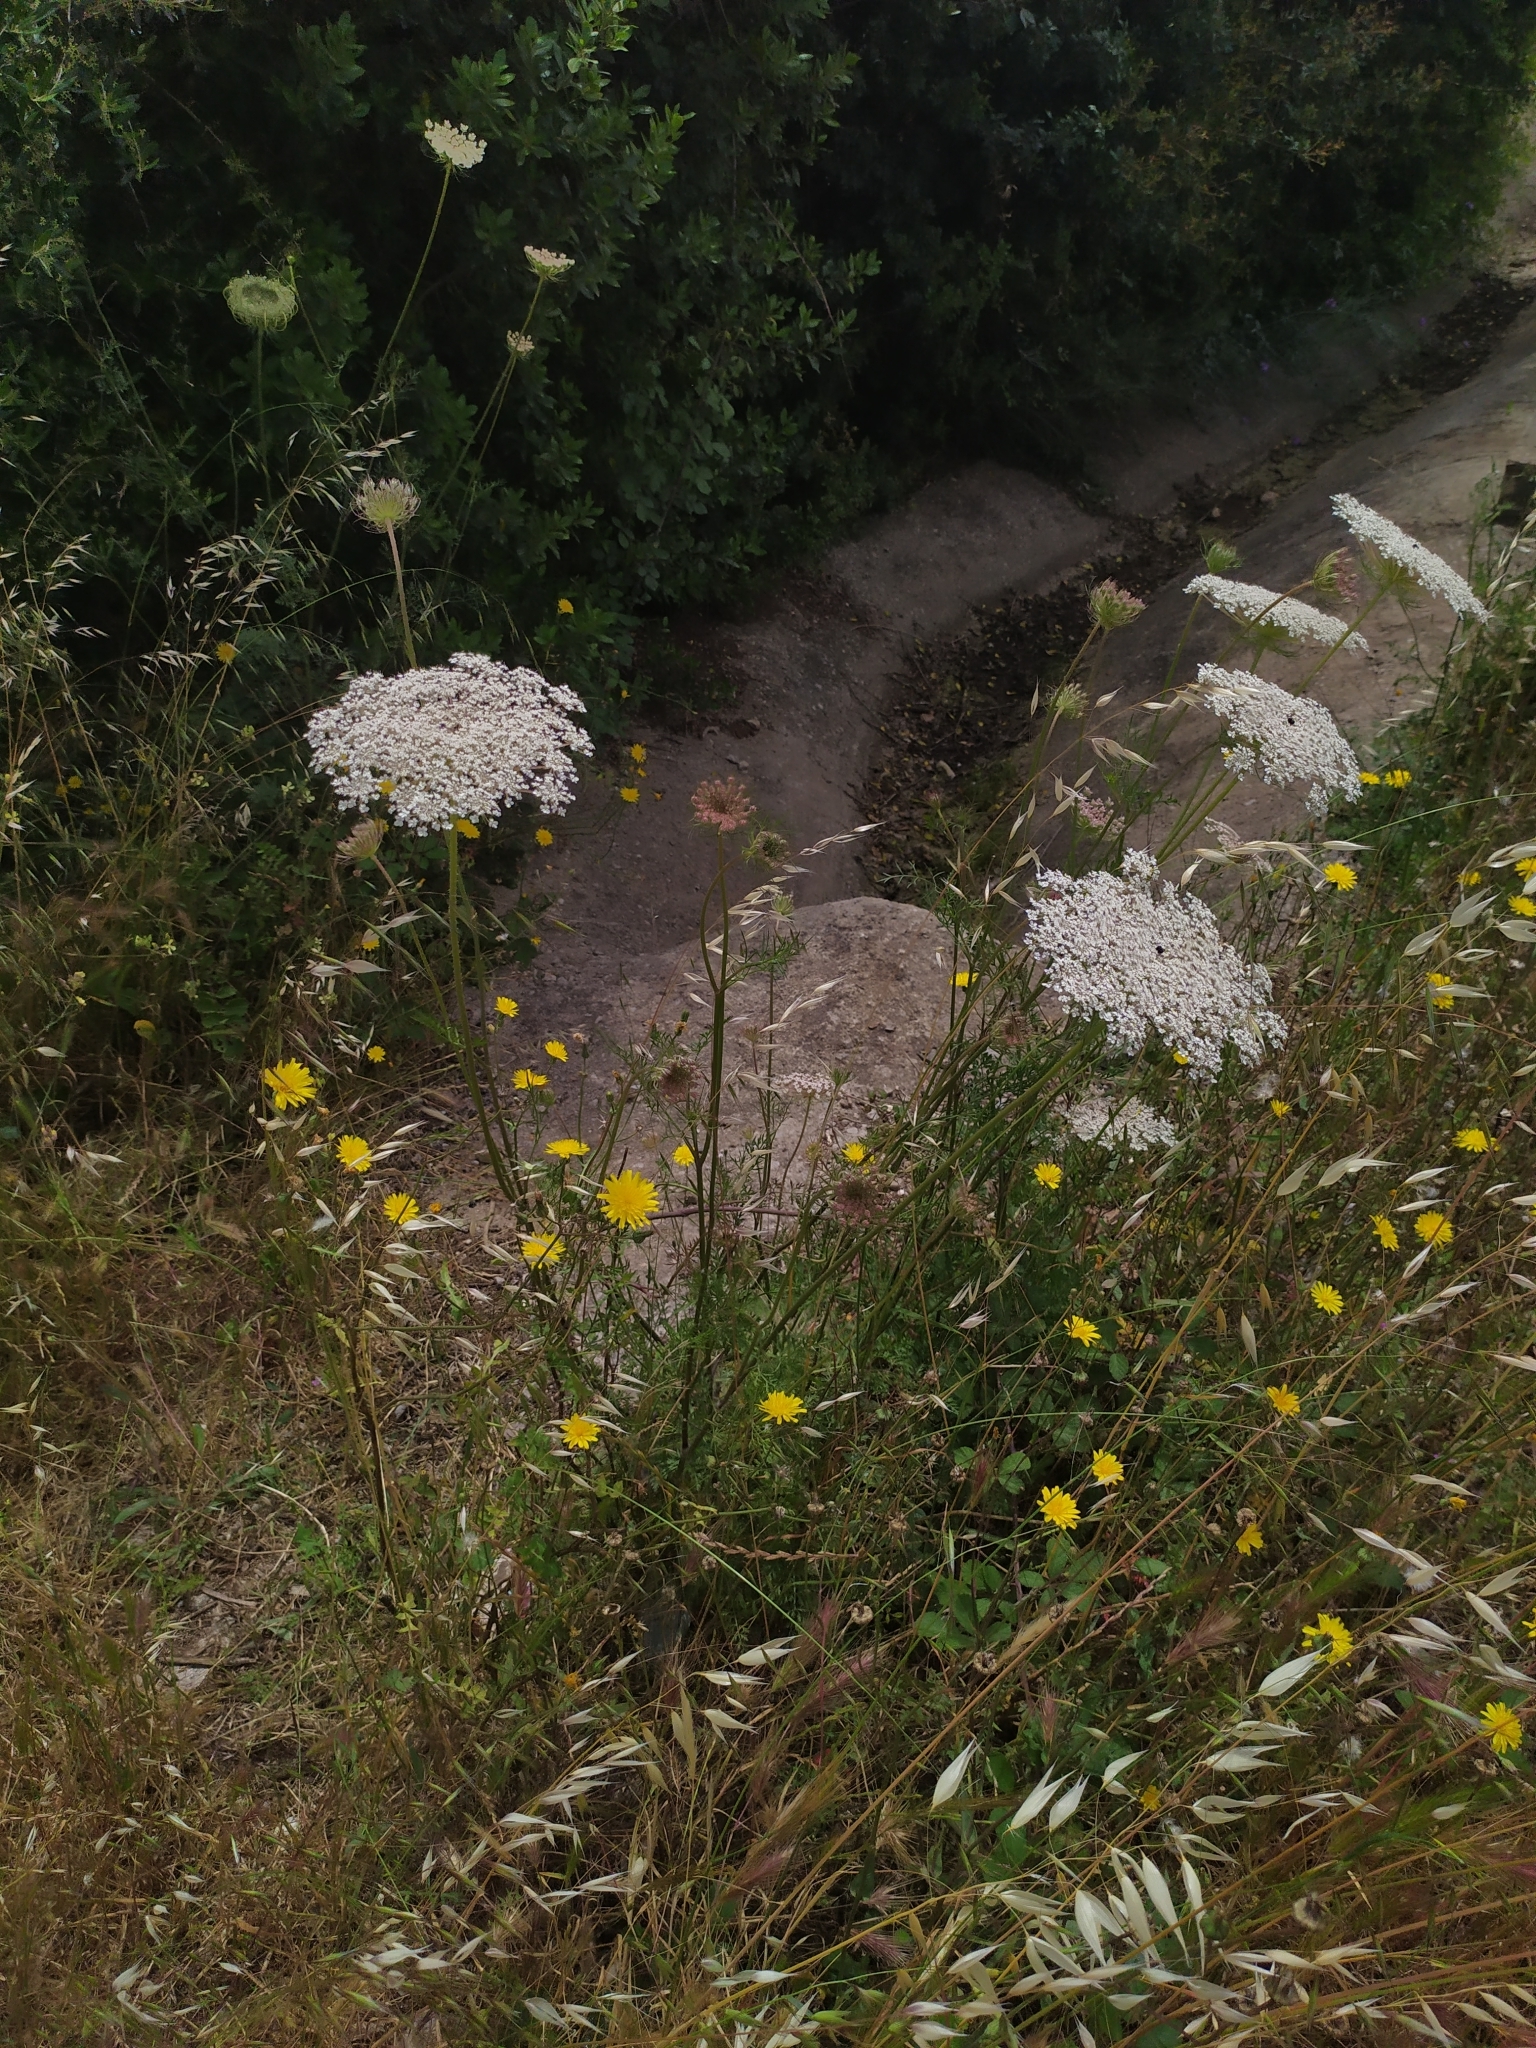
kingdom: Plantae
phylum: Tracheophyta
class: Magnoliopsida
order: Apiales
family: Apiaceae
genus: Daucus
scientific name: Daucus carota
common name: Wild carrot
